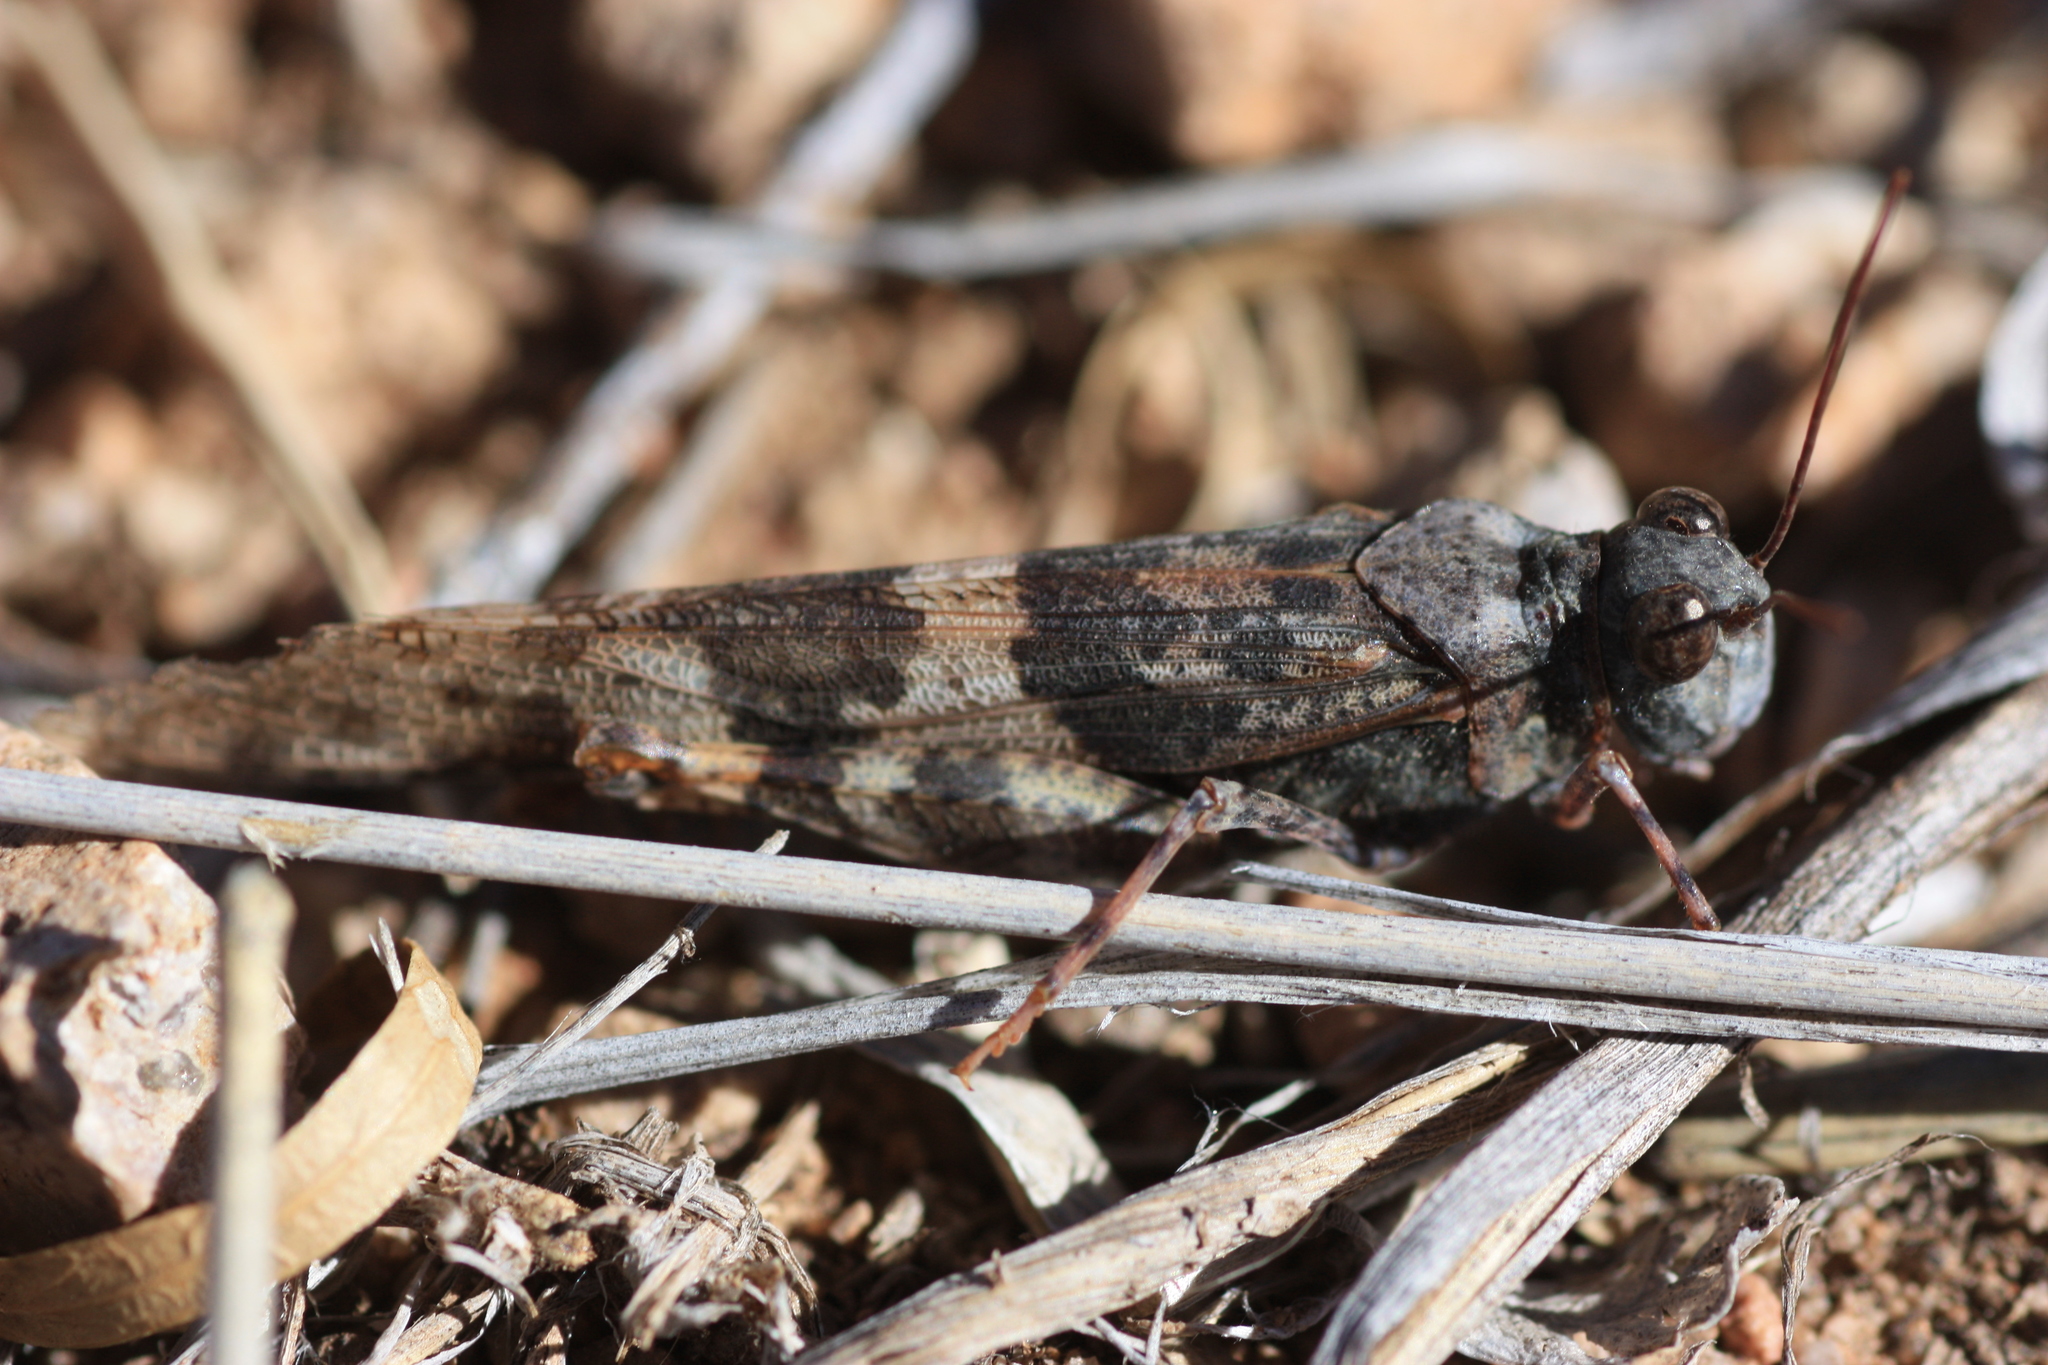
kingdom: Animalia
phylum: Arthropoda
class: Insecta
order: Orthoptera
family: Acrididae
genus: Trimerotropis
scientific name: Trimerotropis pallidipennis
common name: Pallid-winged grasshopper
